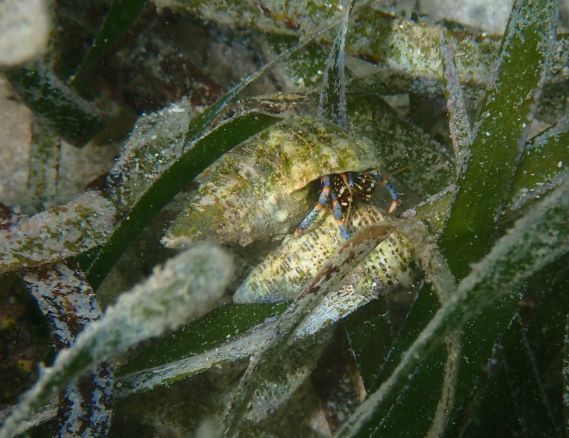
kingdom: Animalia
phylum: Arthropoda
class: Malacostraca
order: Decapoda
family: Diogenidae
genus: Clibanarius
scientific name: Clibanarius tricolor
